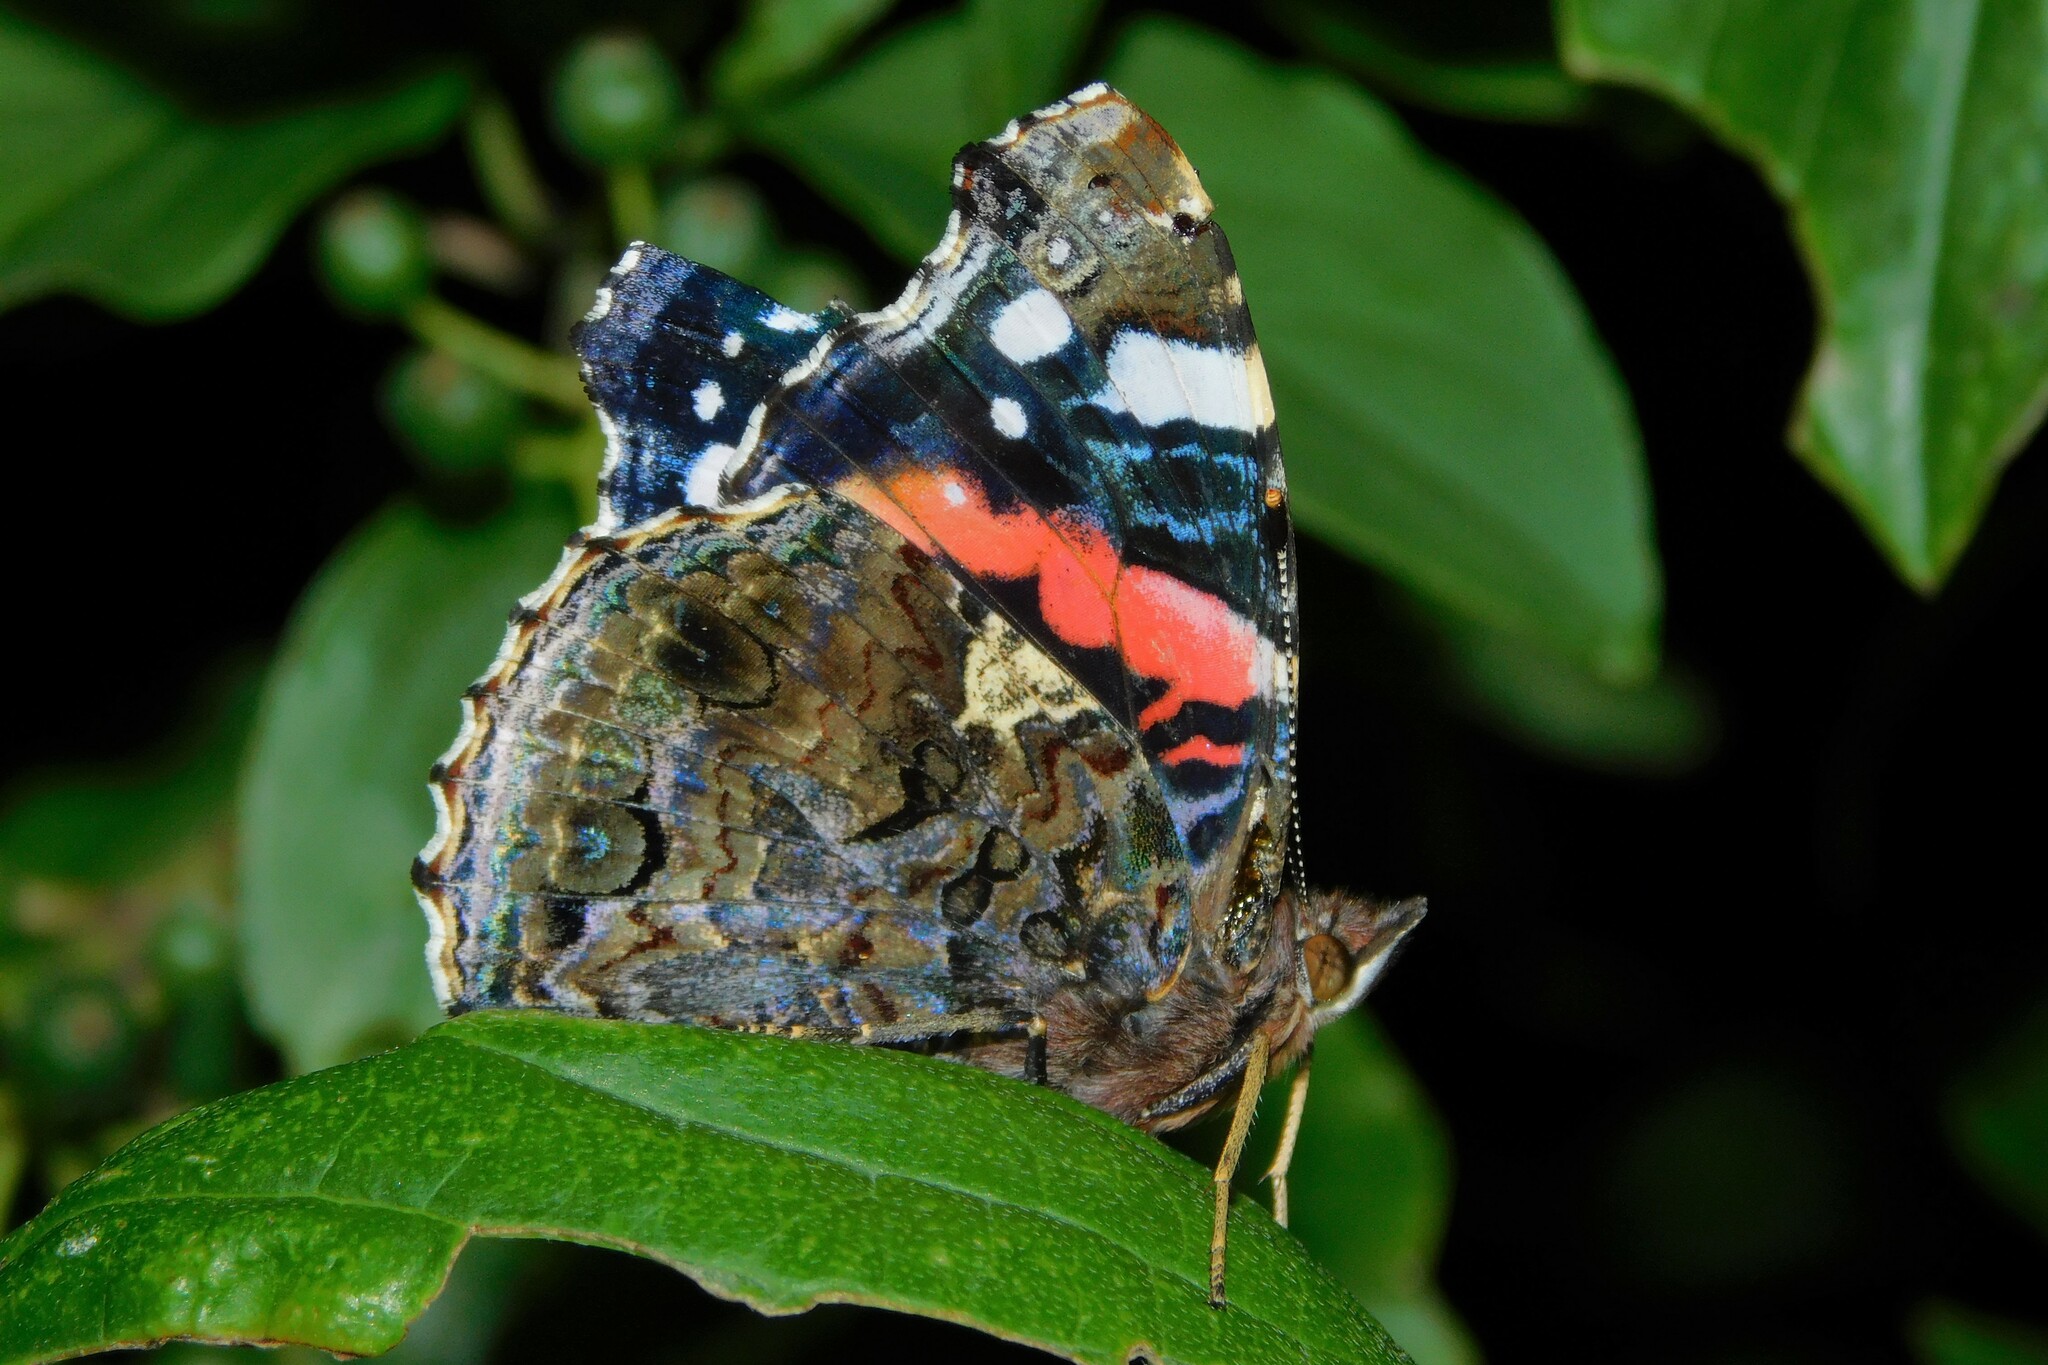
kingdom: Animalia
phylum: Arthropoda
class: Insecta
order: Lepidoptera
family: Nymphalidae
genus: Vanessa
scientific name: Vanessa atalanta
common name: Red admiral
